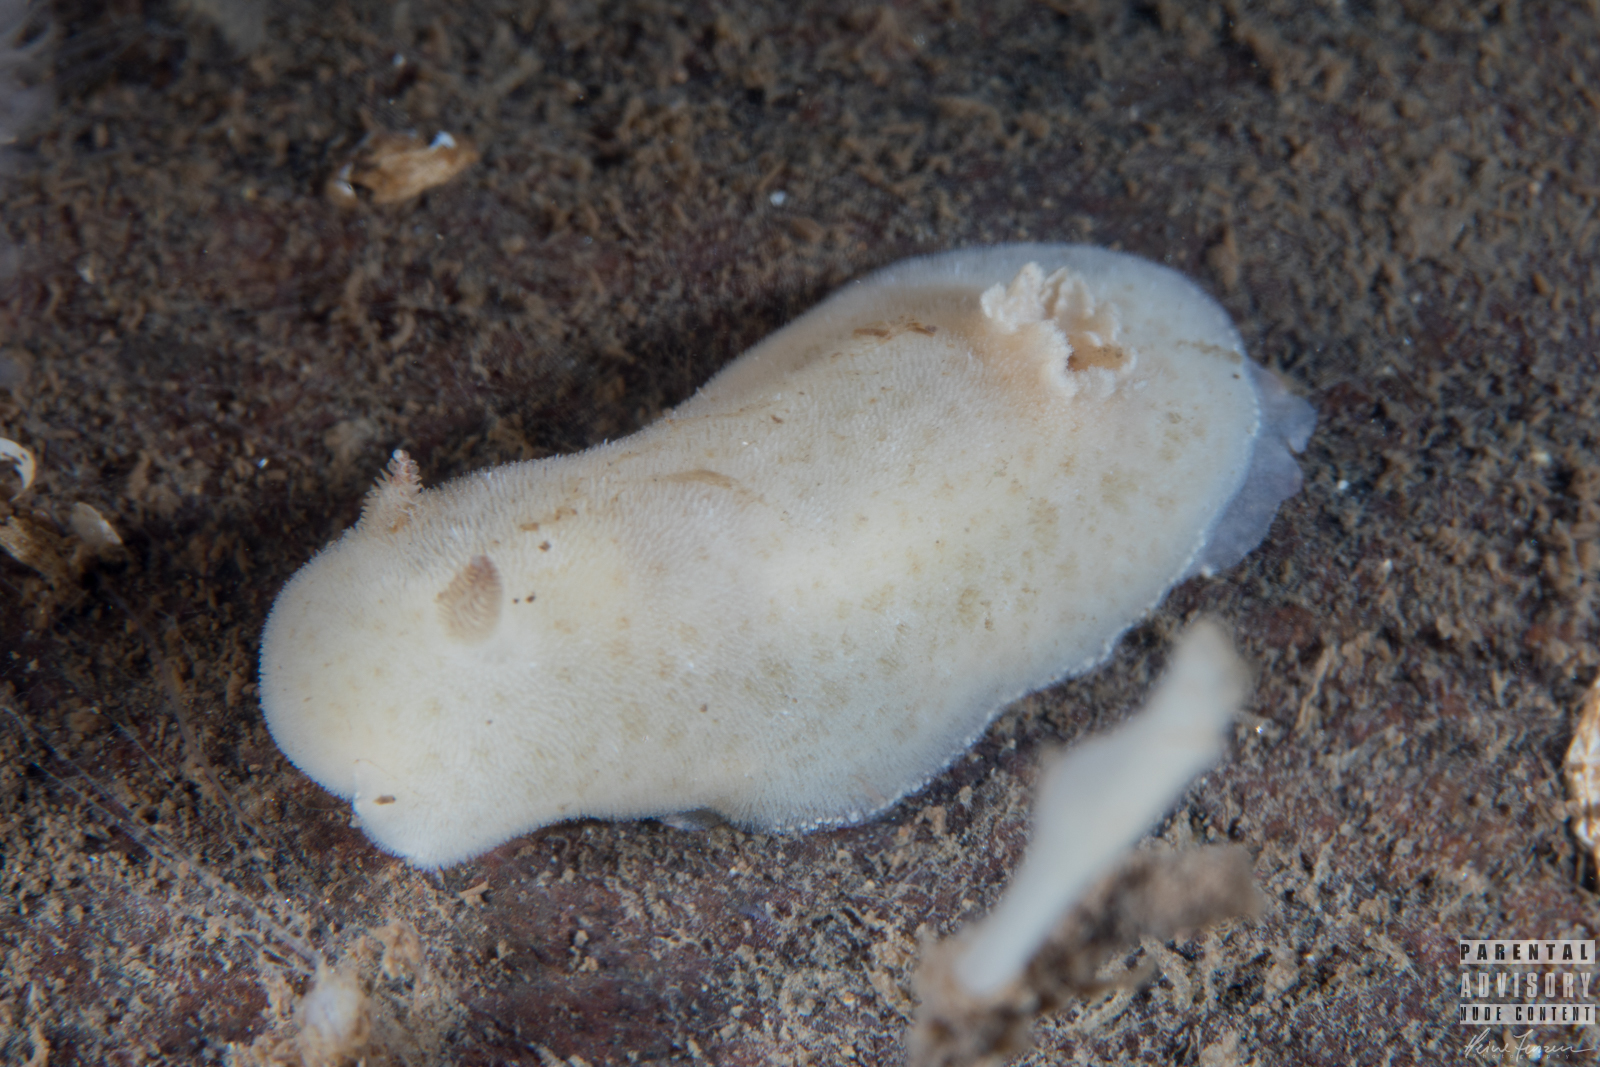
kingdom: Animalia
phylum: Mollusca
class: Gastropoda
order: Nudibranchia
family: Discodorididae
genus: Jorunna
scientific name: Jorunna tomentosa
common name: Grey sea slug
